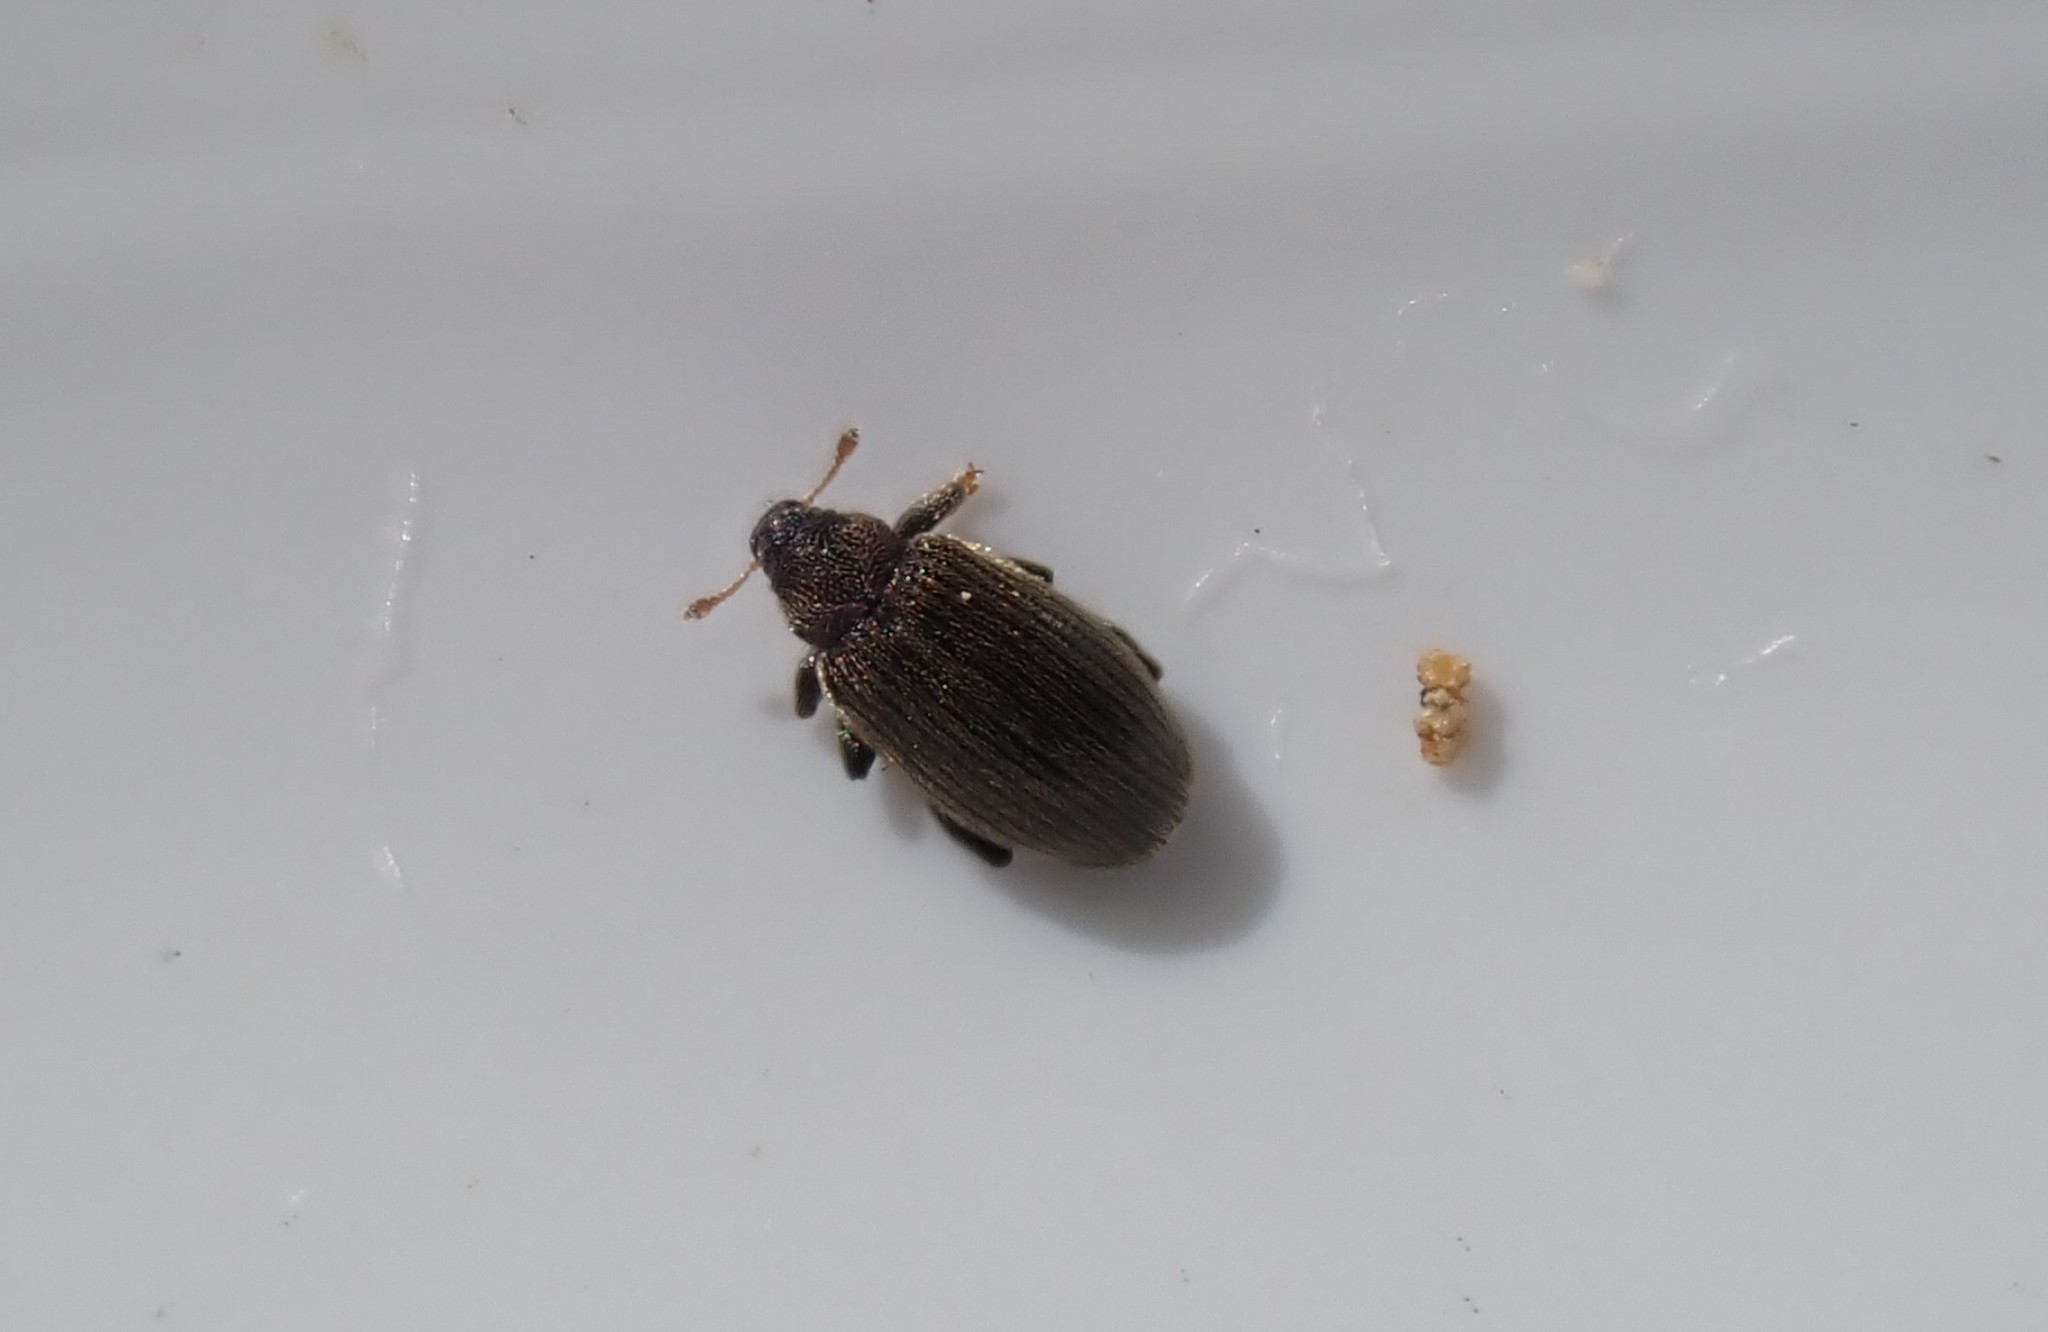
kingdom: Animalia
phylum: Arthropoda
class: Insecta
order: Coleoptera
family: Curculionidae
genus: Orchestes
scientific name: Orchestes fagi
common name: Beech leaf miner
